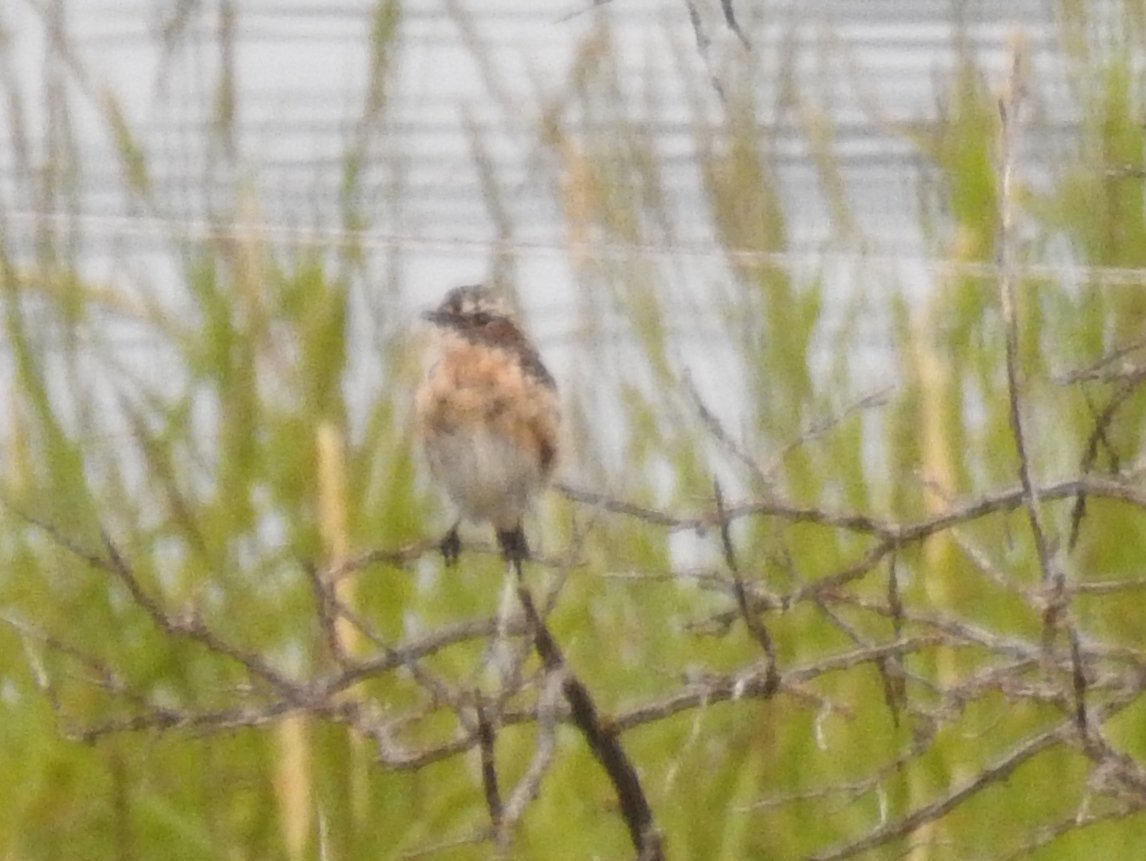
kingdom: Animalia
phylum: Chordata
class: Aves
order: Passeriformes
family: Muscicapidae
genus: Saxicola
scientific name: Saxicola rubetra
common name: Whinchat
